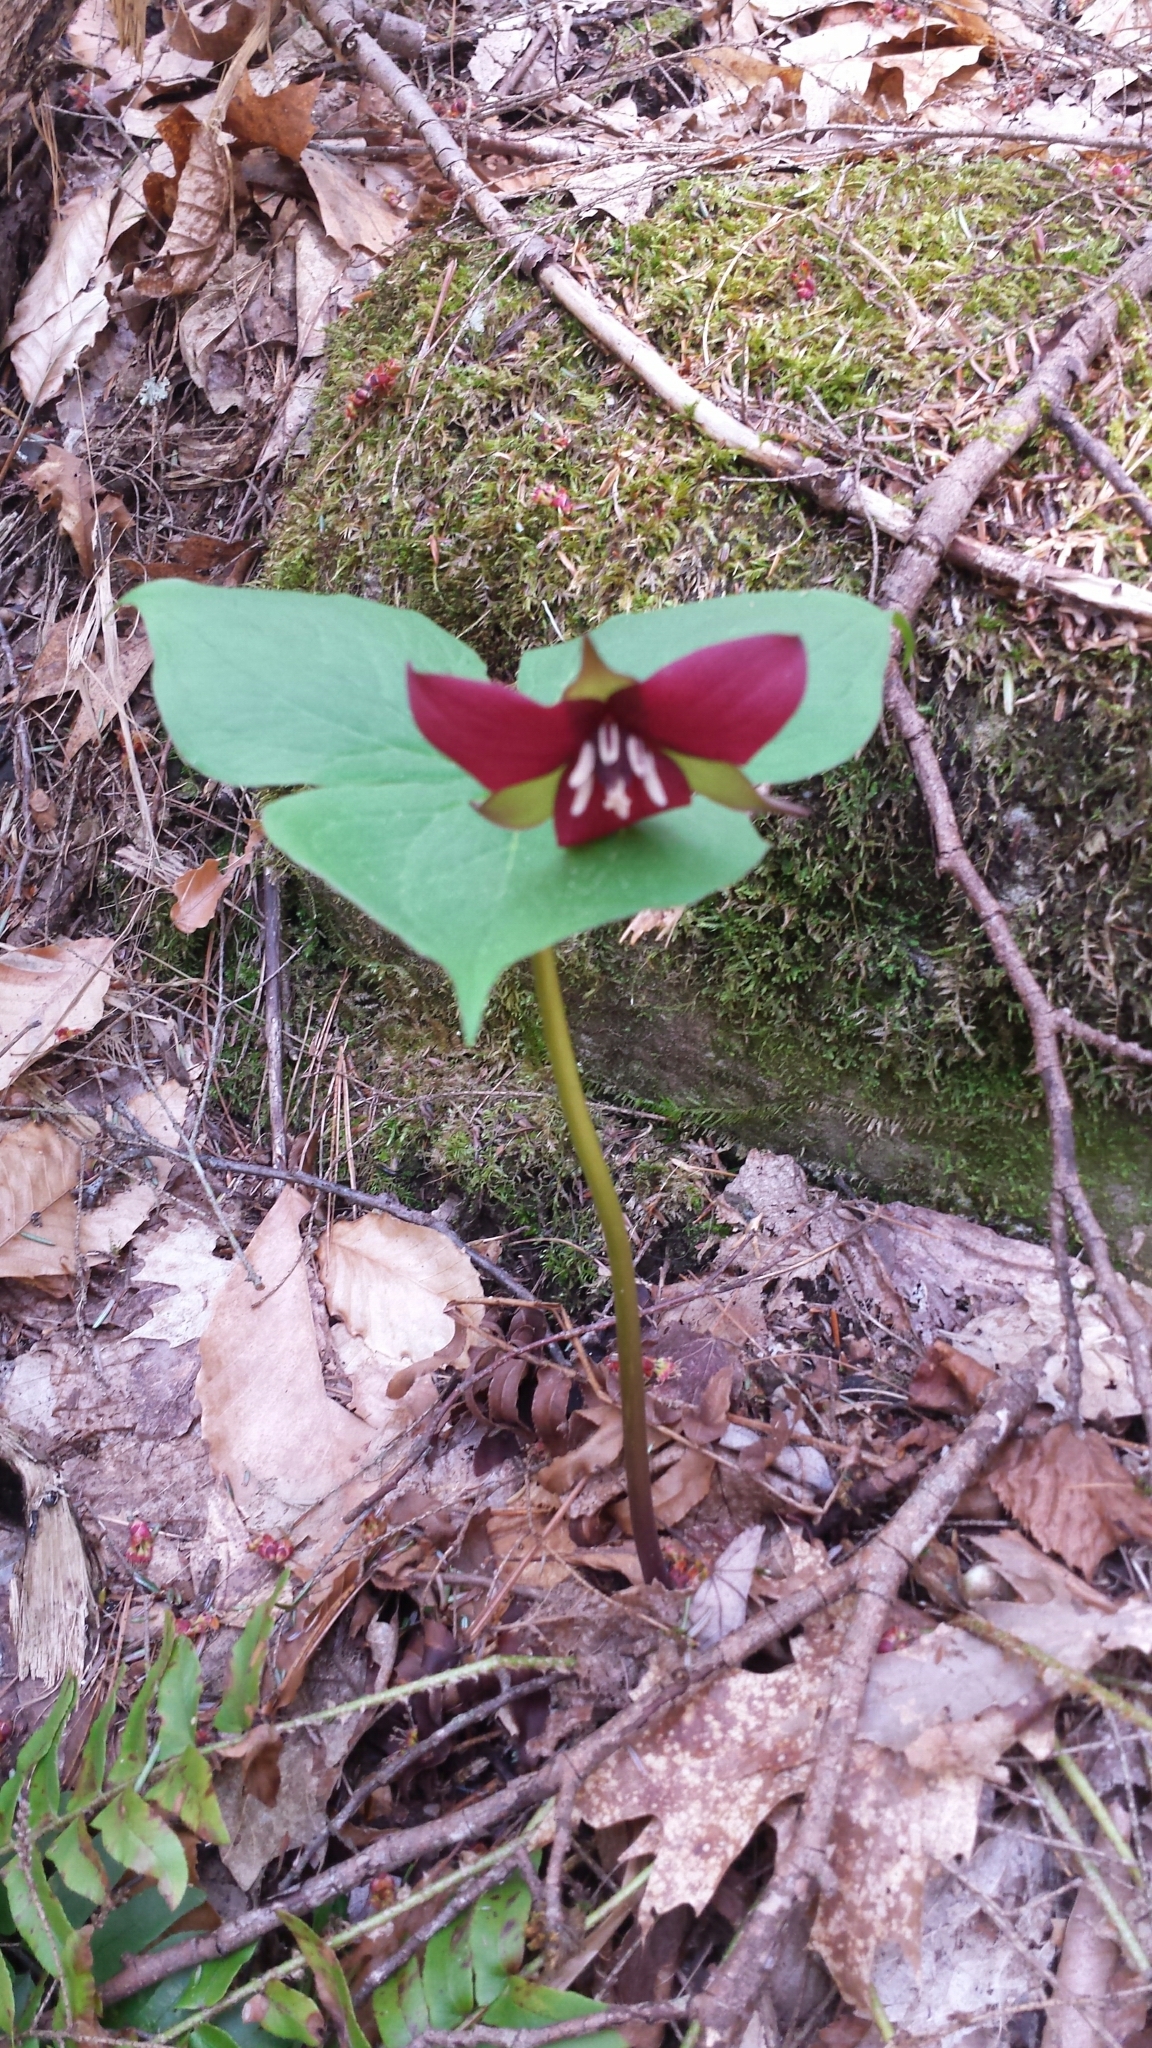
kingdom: Plantae
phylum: Tracheophyta
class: Liliopsida
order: Liliales
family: Melanthiaceae
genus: Trillium
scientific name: Trillium erectum
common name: Purple trillium
